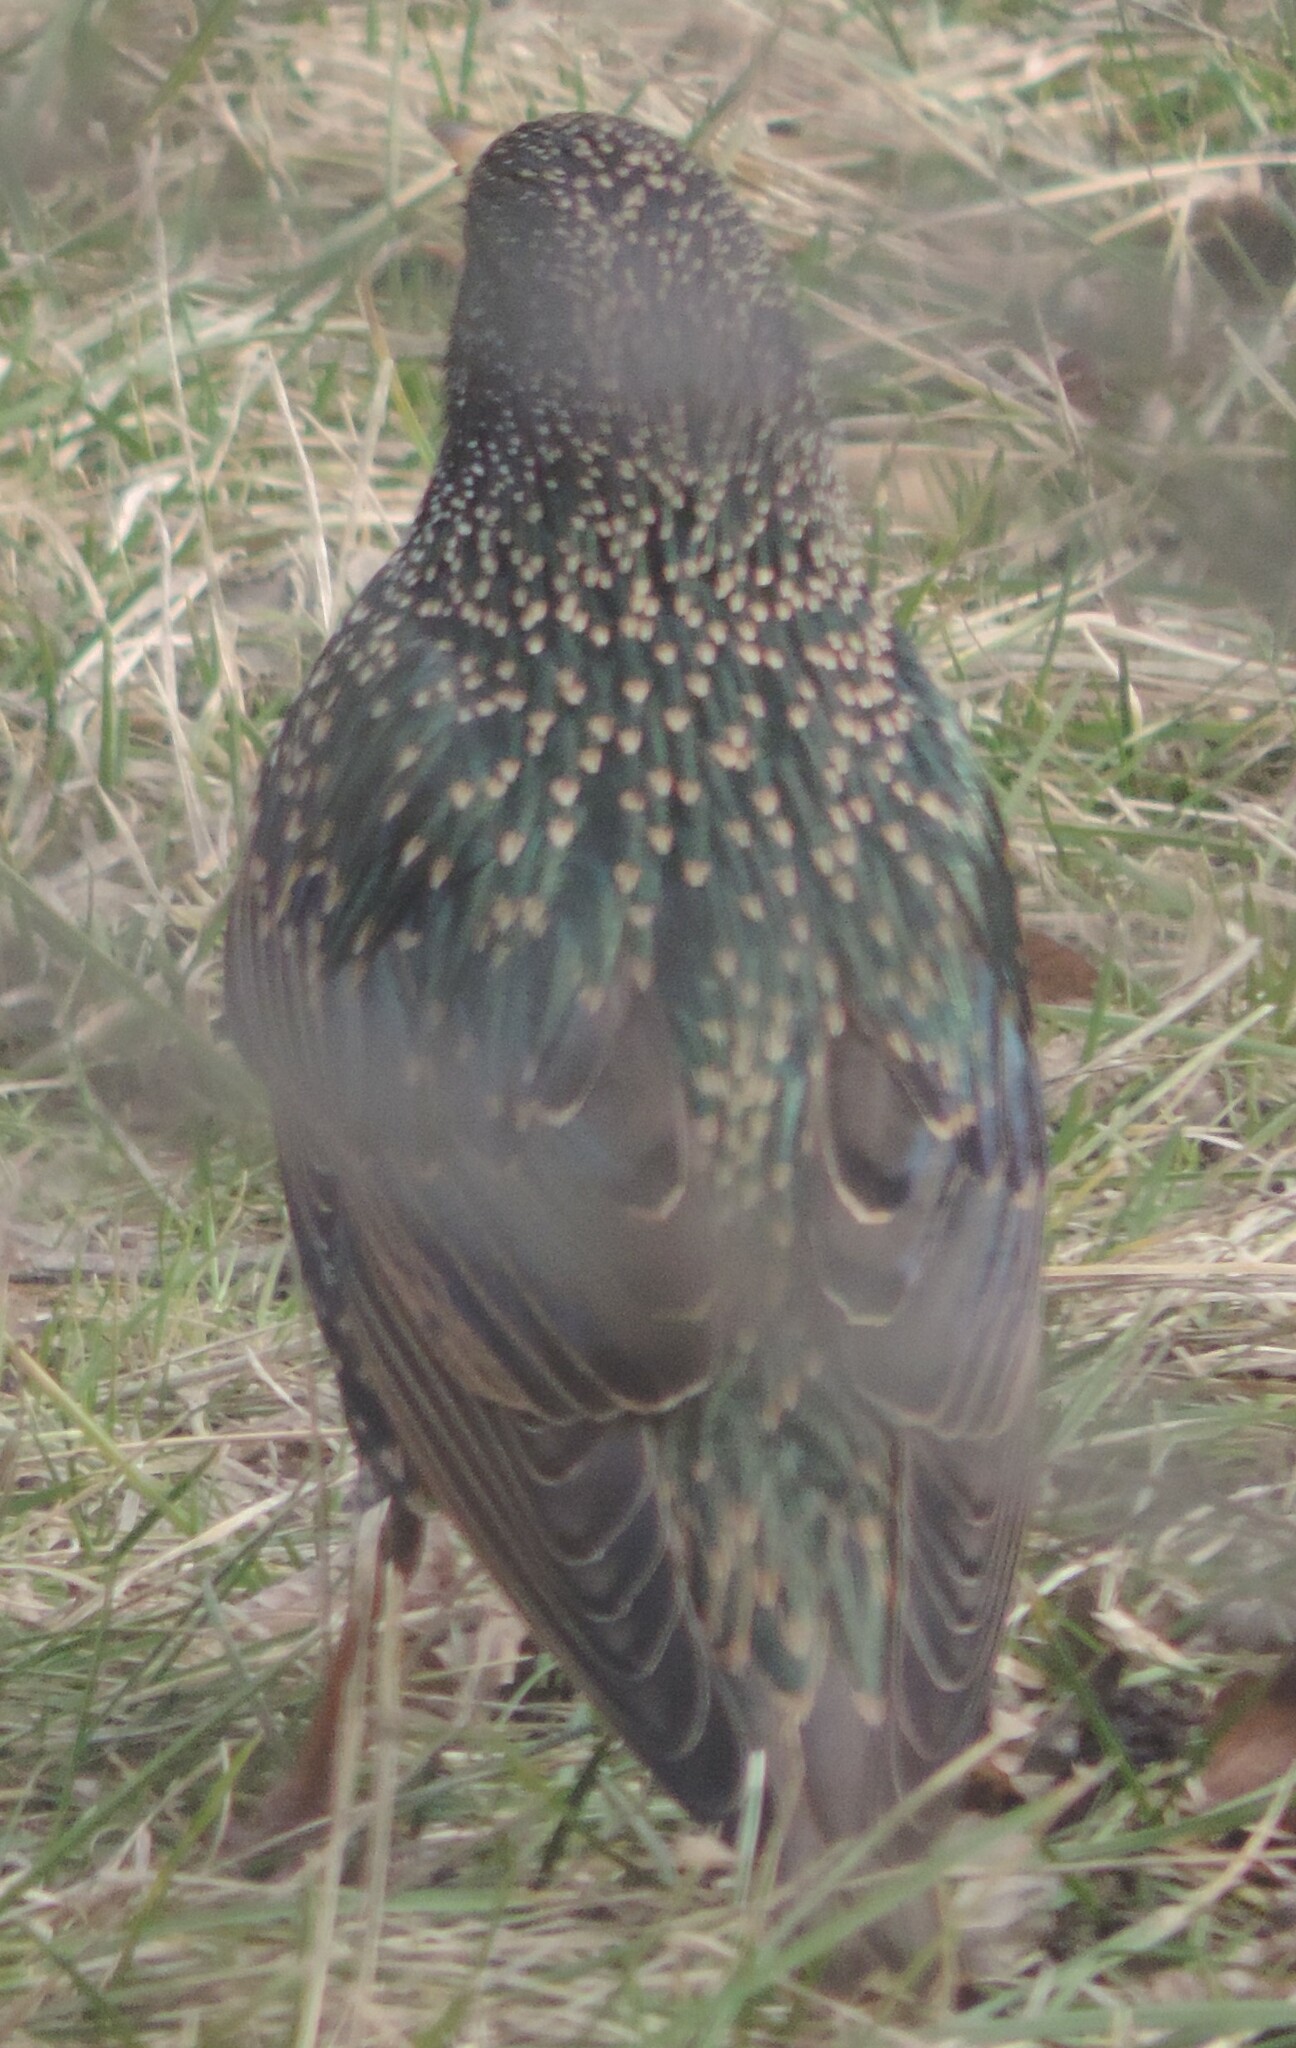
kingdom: Animalia
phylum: Chordata
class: Aves
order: Passeriformes
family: Sturnidae
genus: Sturnus
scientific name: Sturnus vulgaris
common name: Common starling
